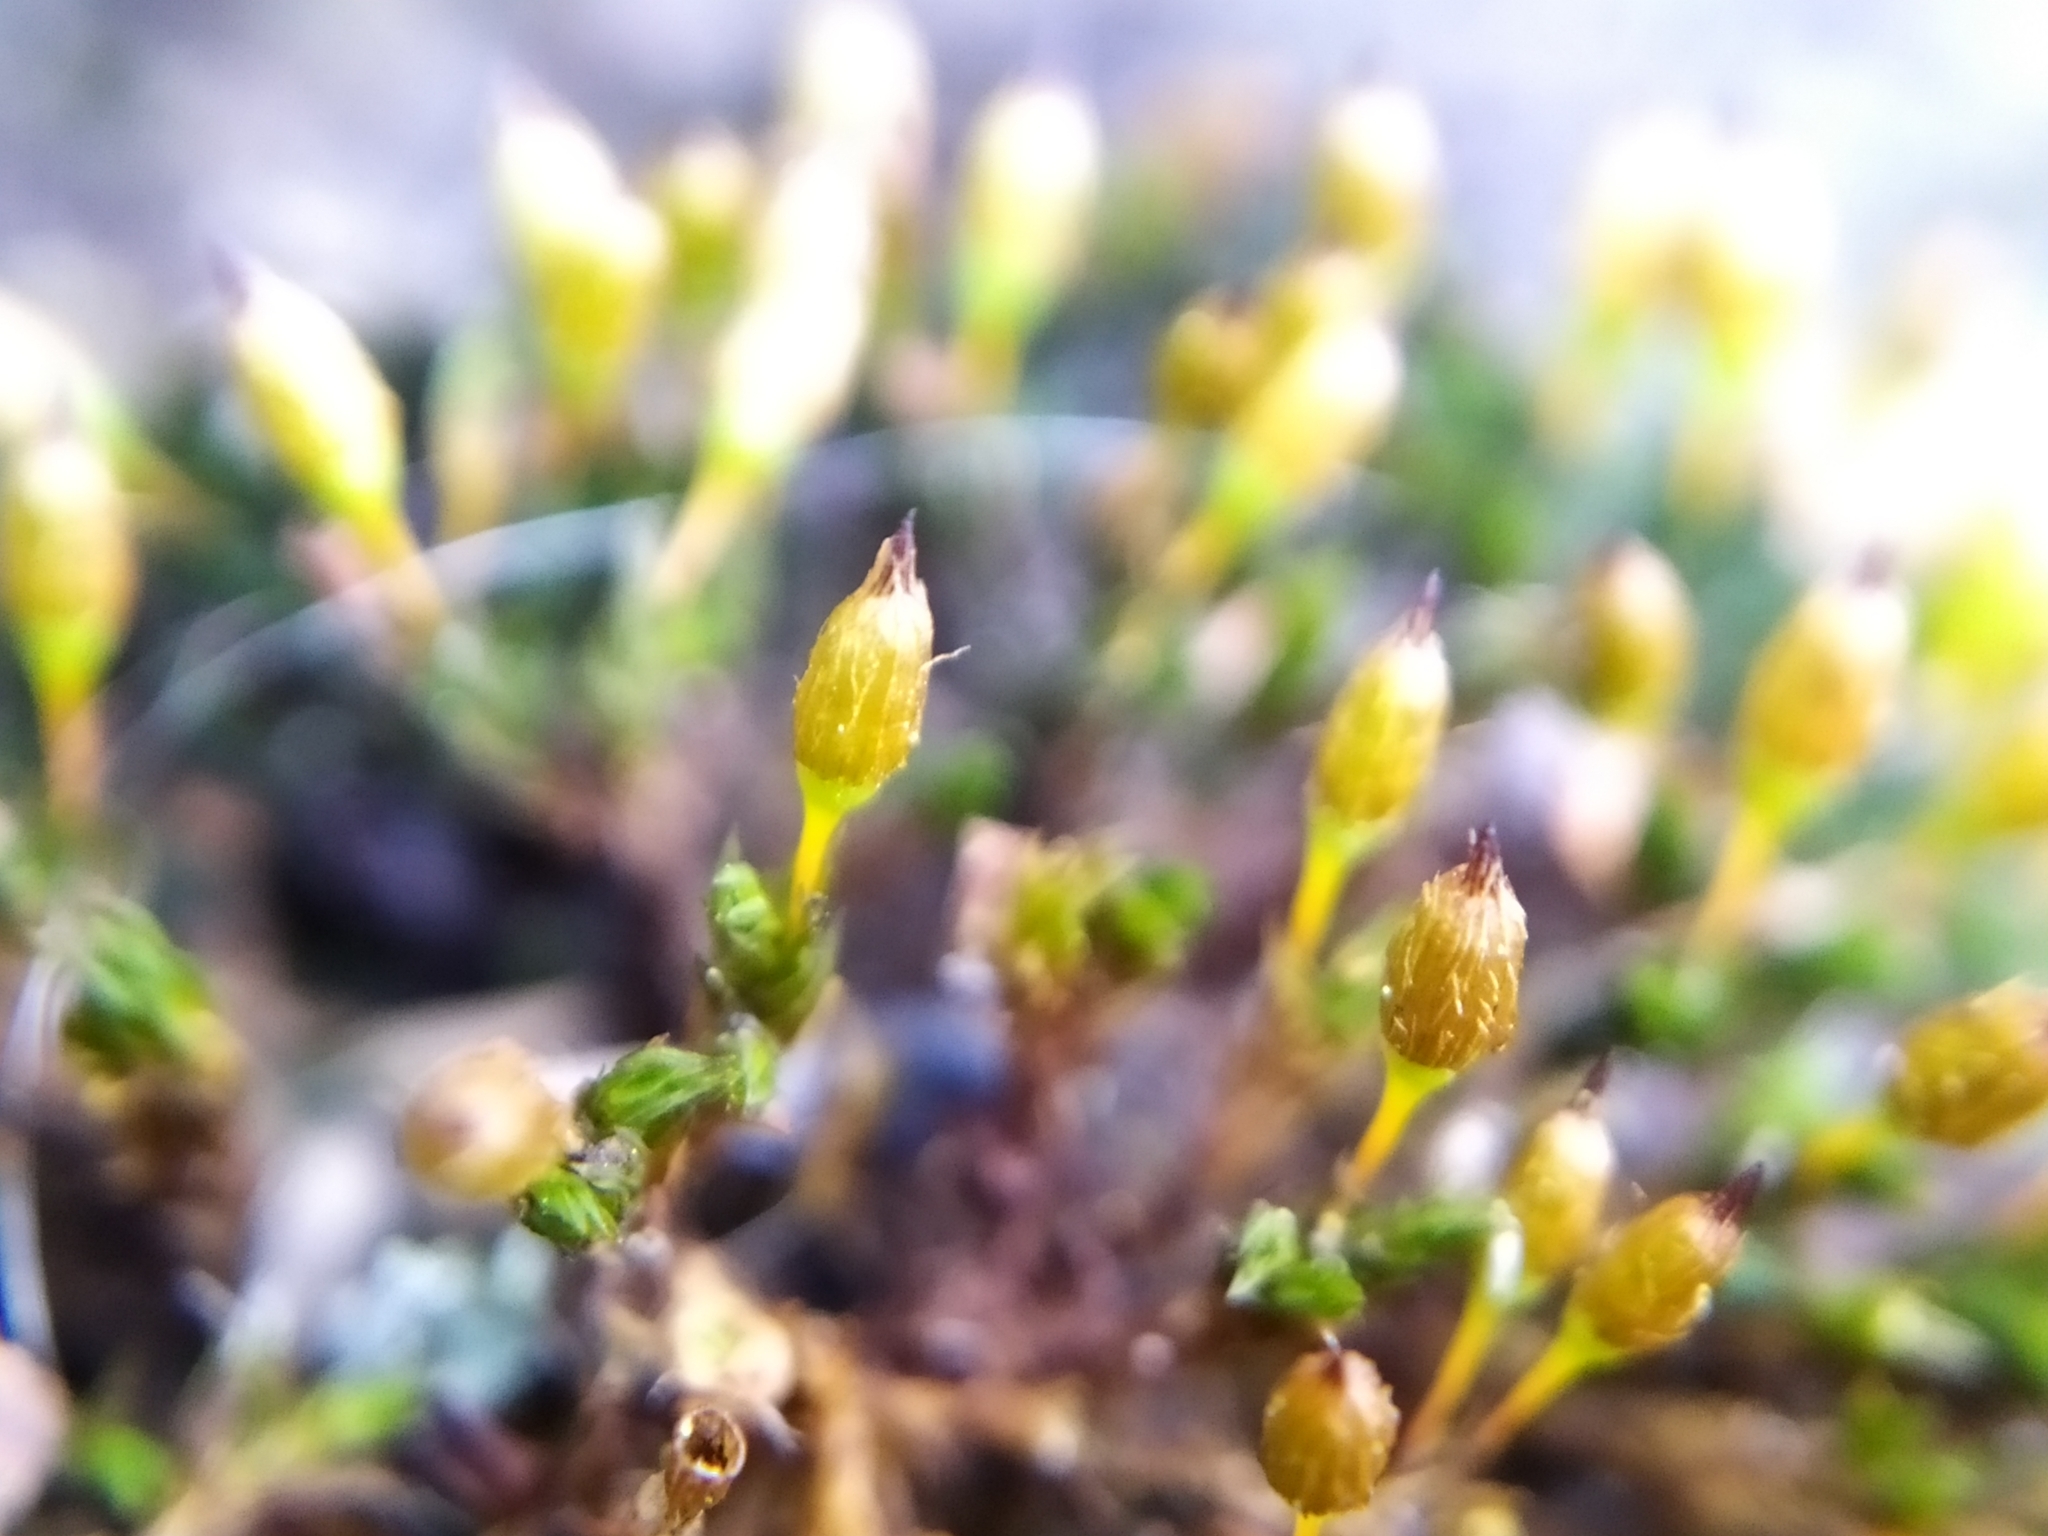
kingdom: Plantae
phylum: Bryophyta
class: Bryopsida
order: Orthotrichales
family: Orthotrichaceae
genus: Orthotrichum
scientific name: Orthotrichum anomalum
